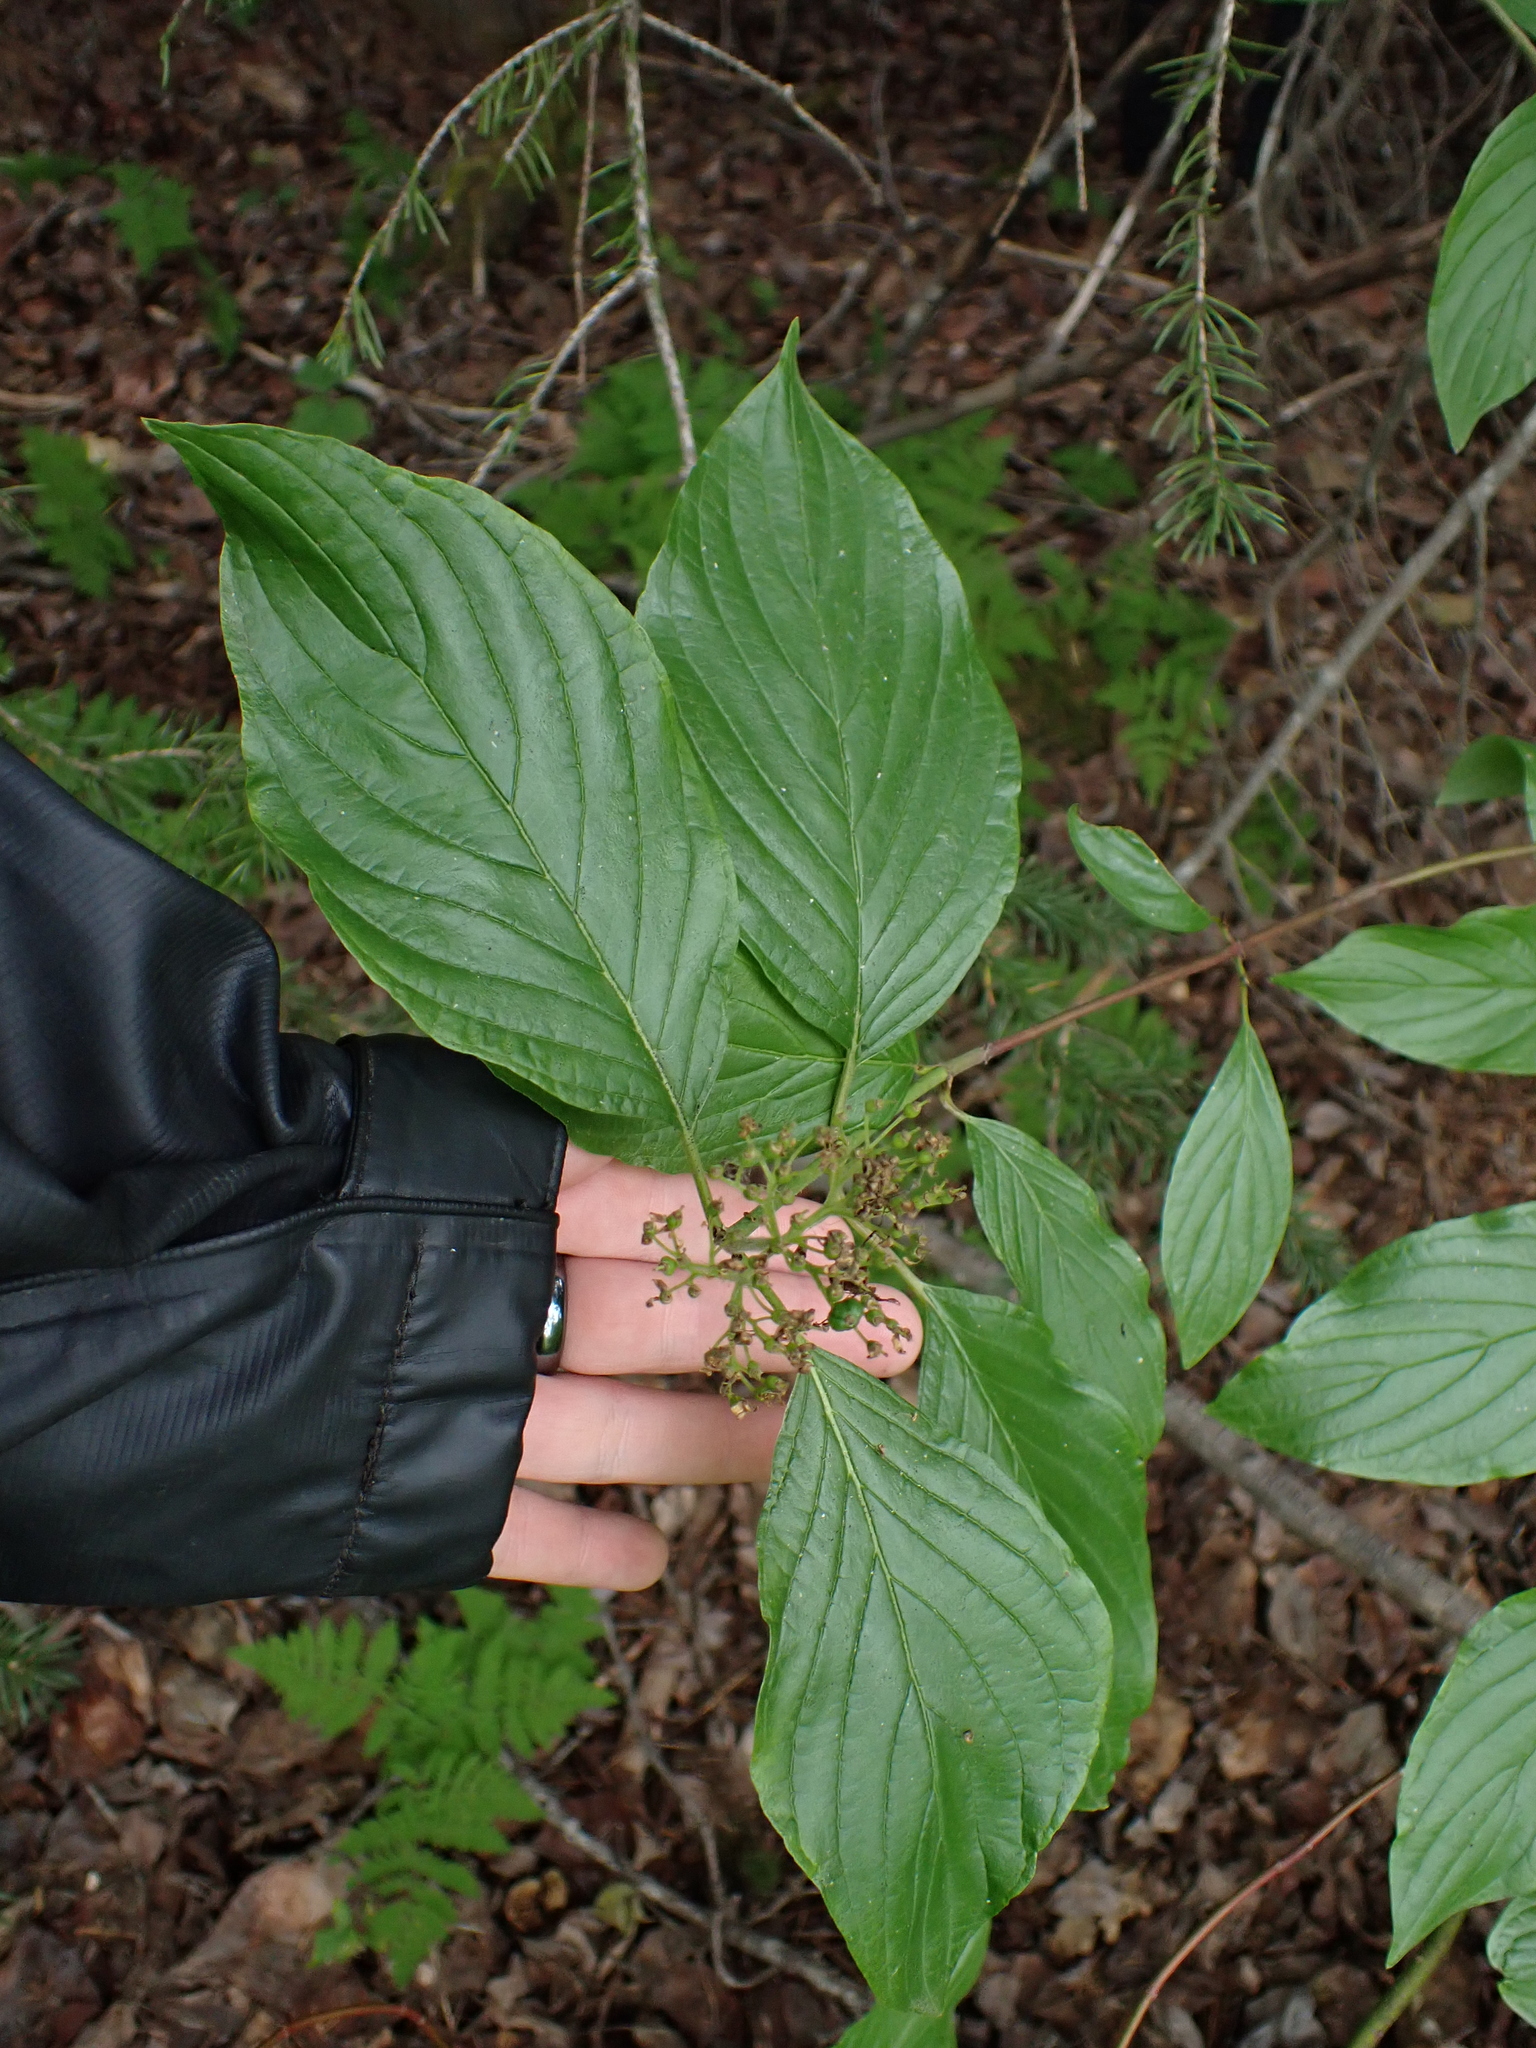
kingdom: Plantae
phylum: Tracheophyta
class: Magnoliopsida
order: Cornales
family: Cornaceae
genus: Cornus
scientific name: Cornus sericea
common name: Red-osier dogwood
